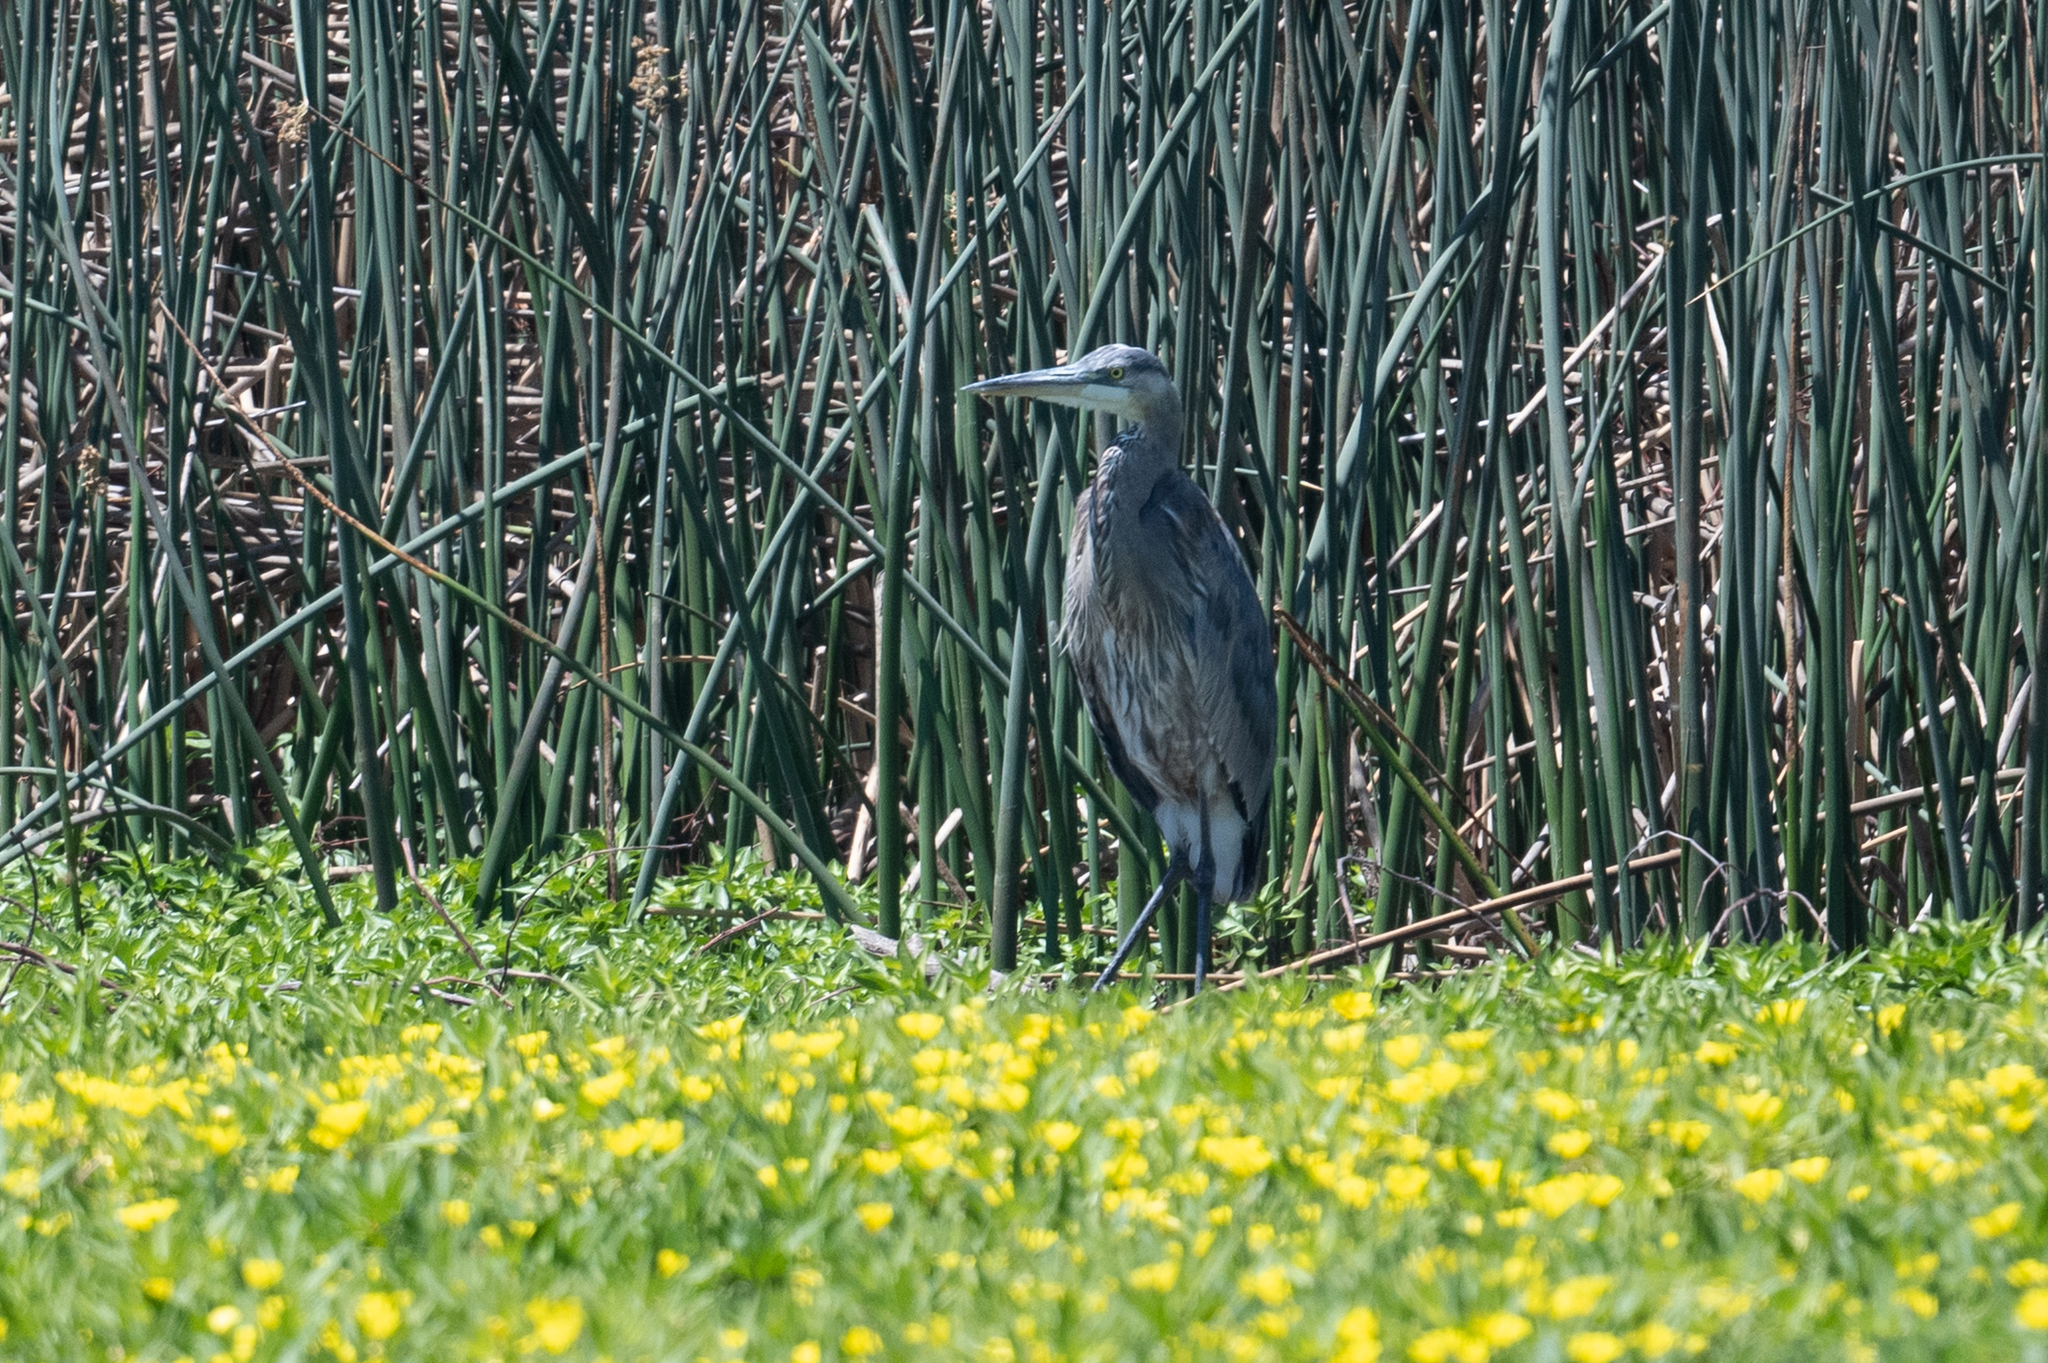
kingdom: Animalia
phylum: Chordata
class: Aves
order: Pelecaniformes
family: Ardeidae
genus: Ardea
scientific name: Ardea herodias
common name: Great blue heron
